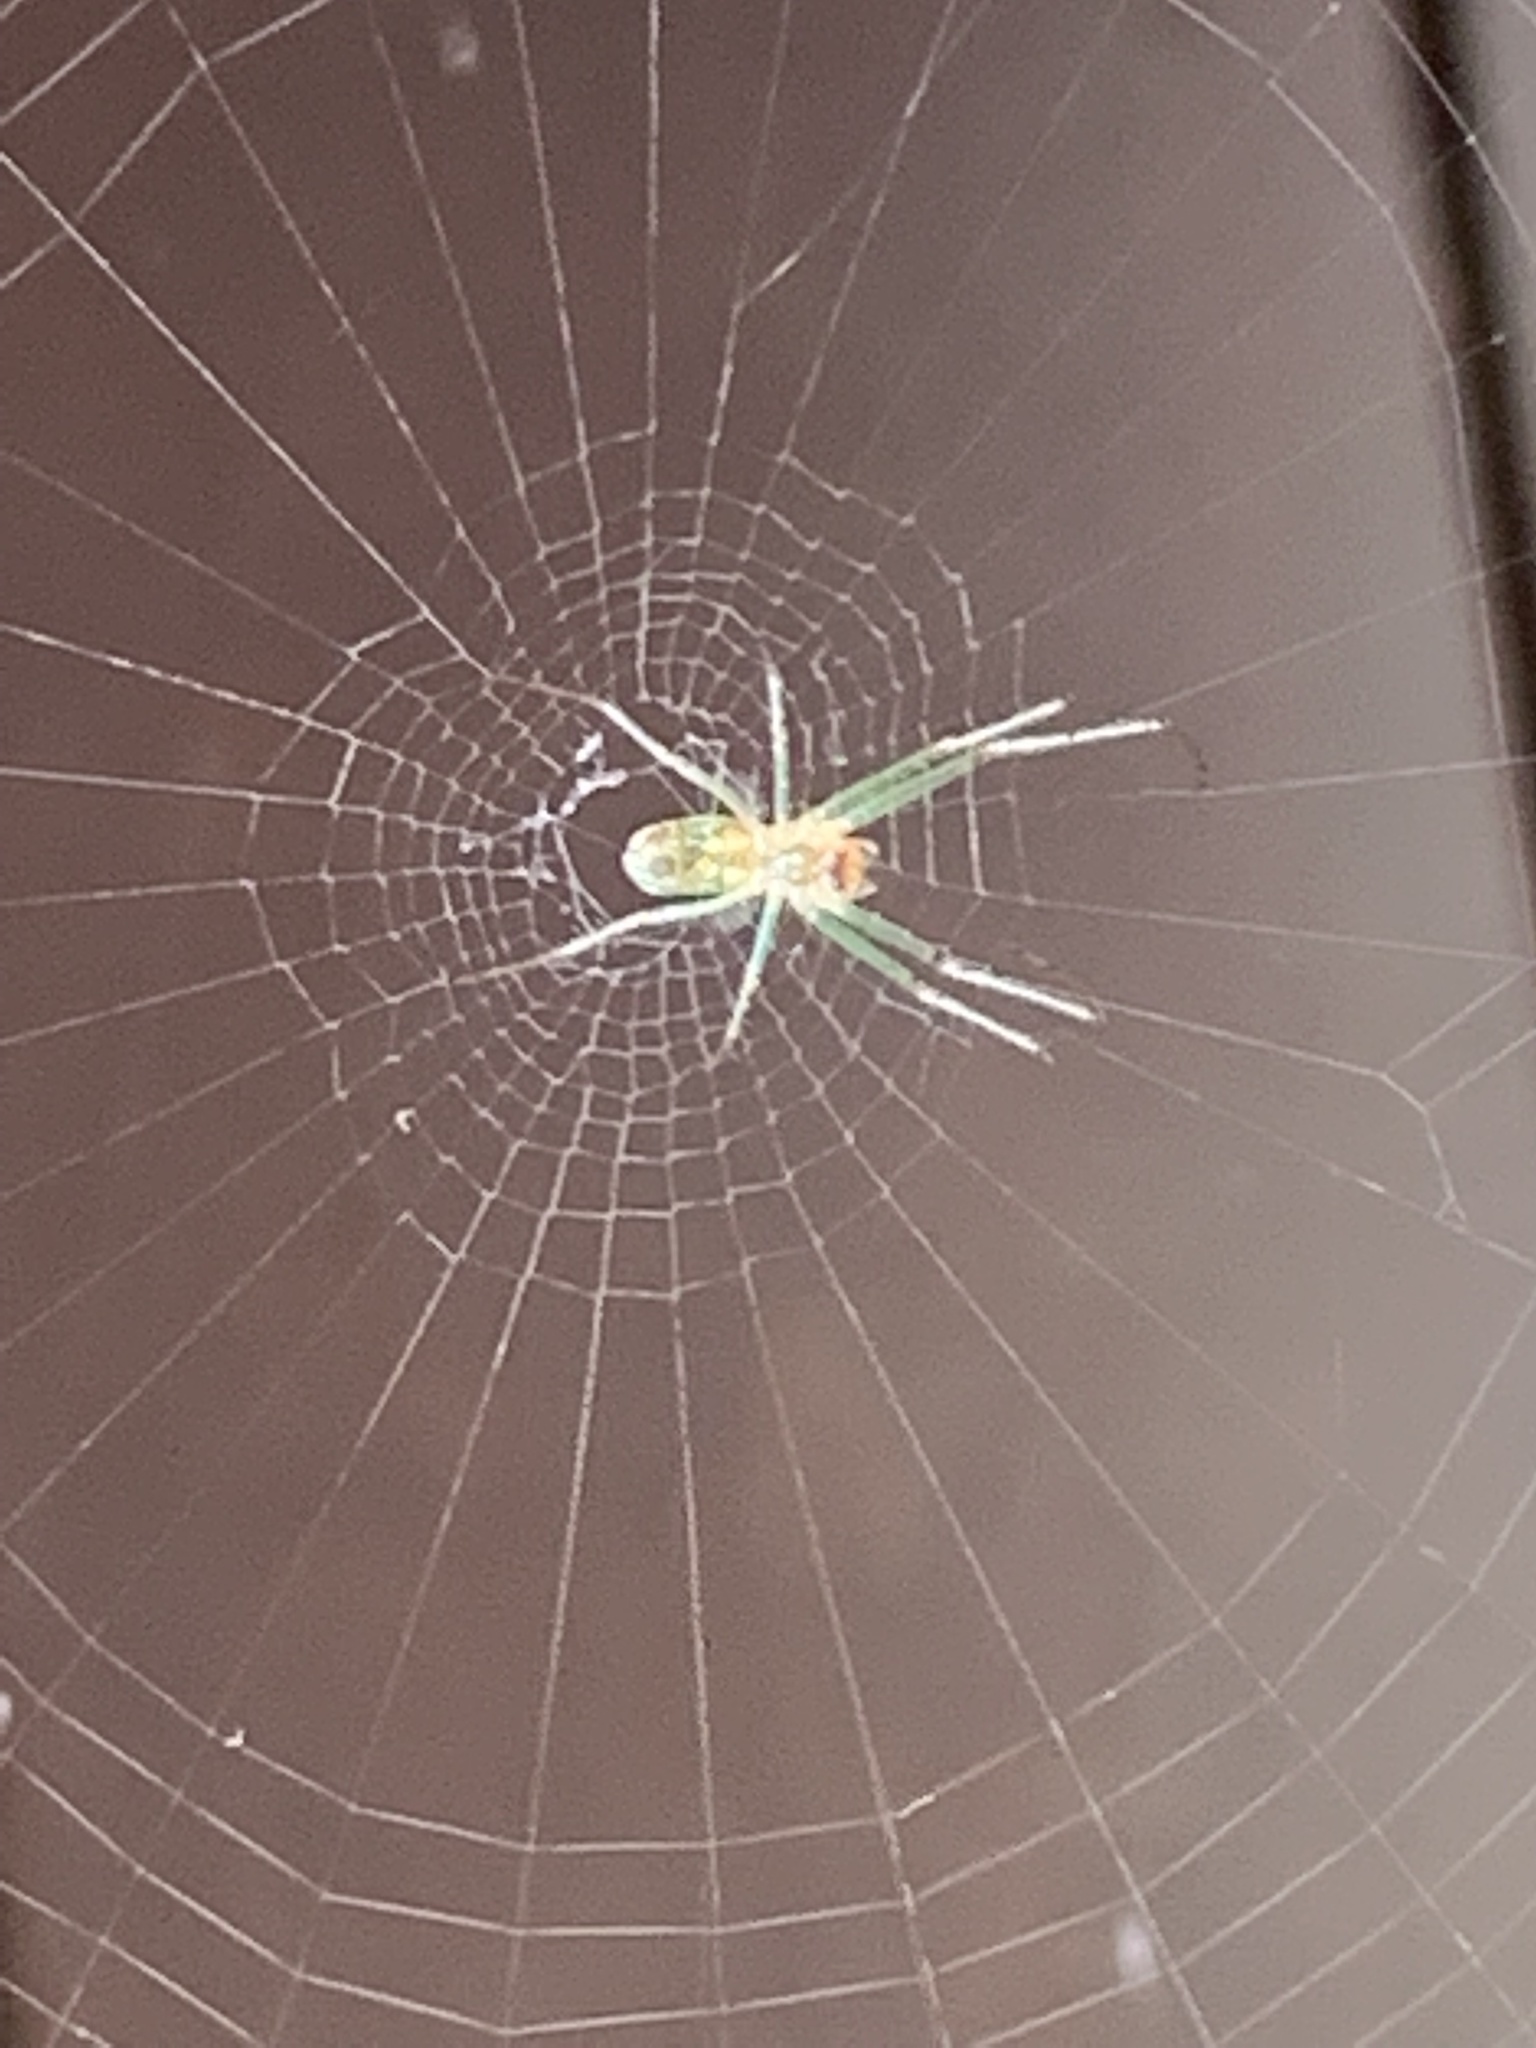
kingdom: Animalia
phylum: Arthropoda
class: Arachnida
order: Araneae
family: Tetragnathidae
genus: Leucauge
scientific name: Leucauge venusta
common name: Longjawed orb weavers
